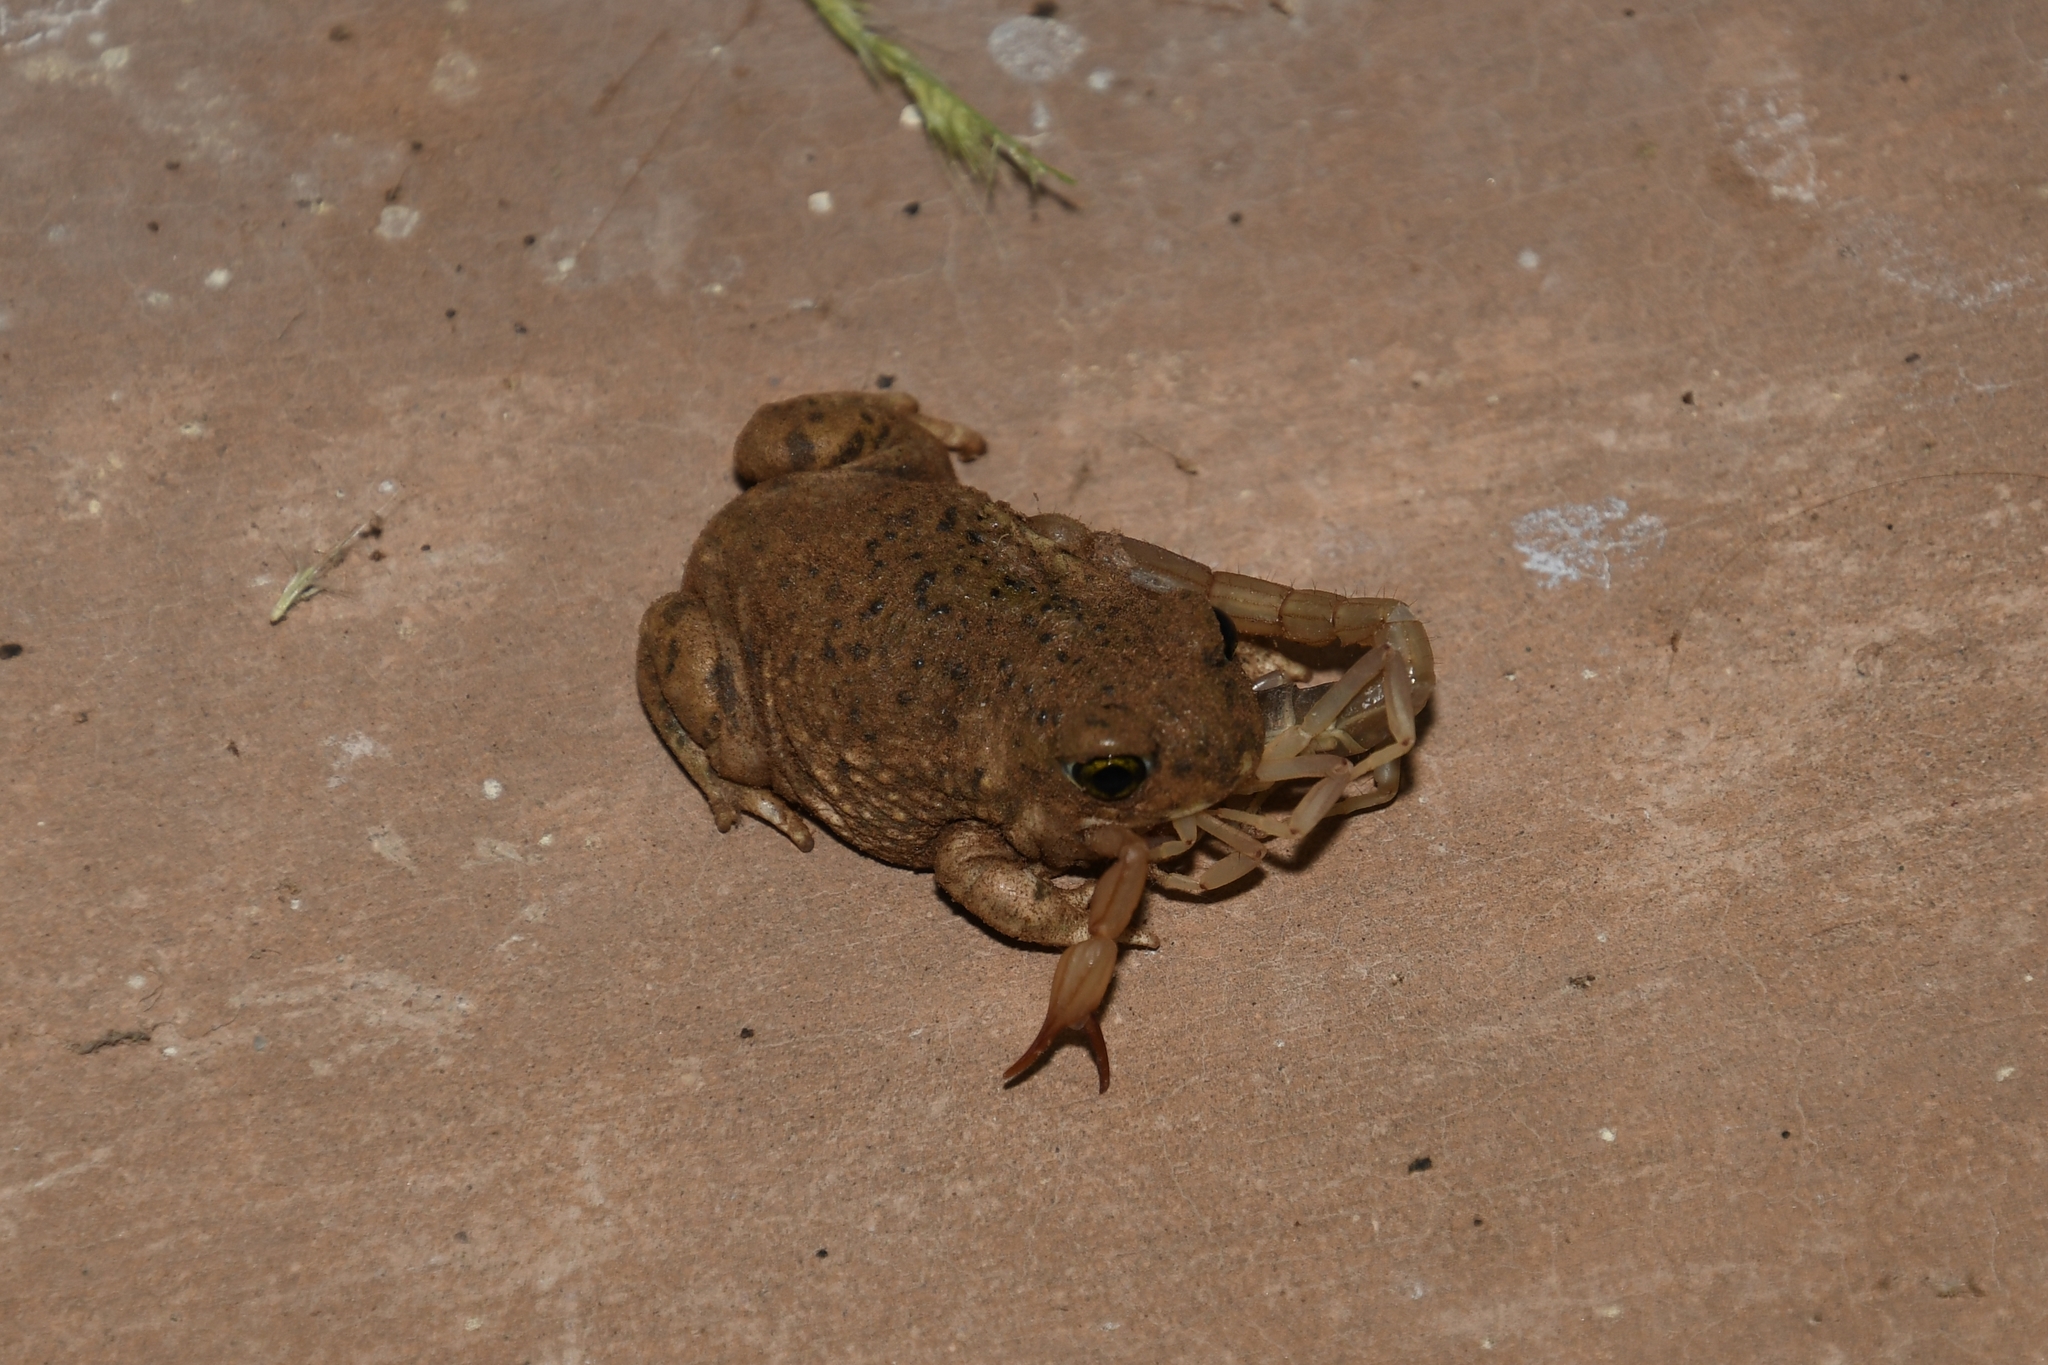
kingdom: Animalia
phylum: Chordata
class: Amphibia
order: Anura
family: Scaphiopodidae
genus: Spea
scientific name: Spea multiplicata
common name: Mexican spadefoot
